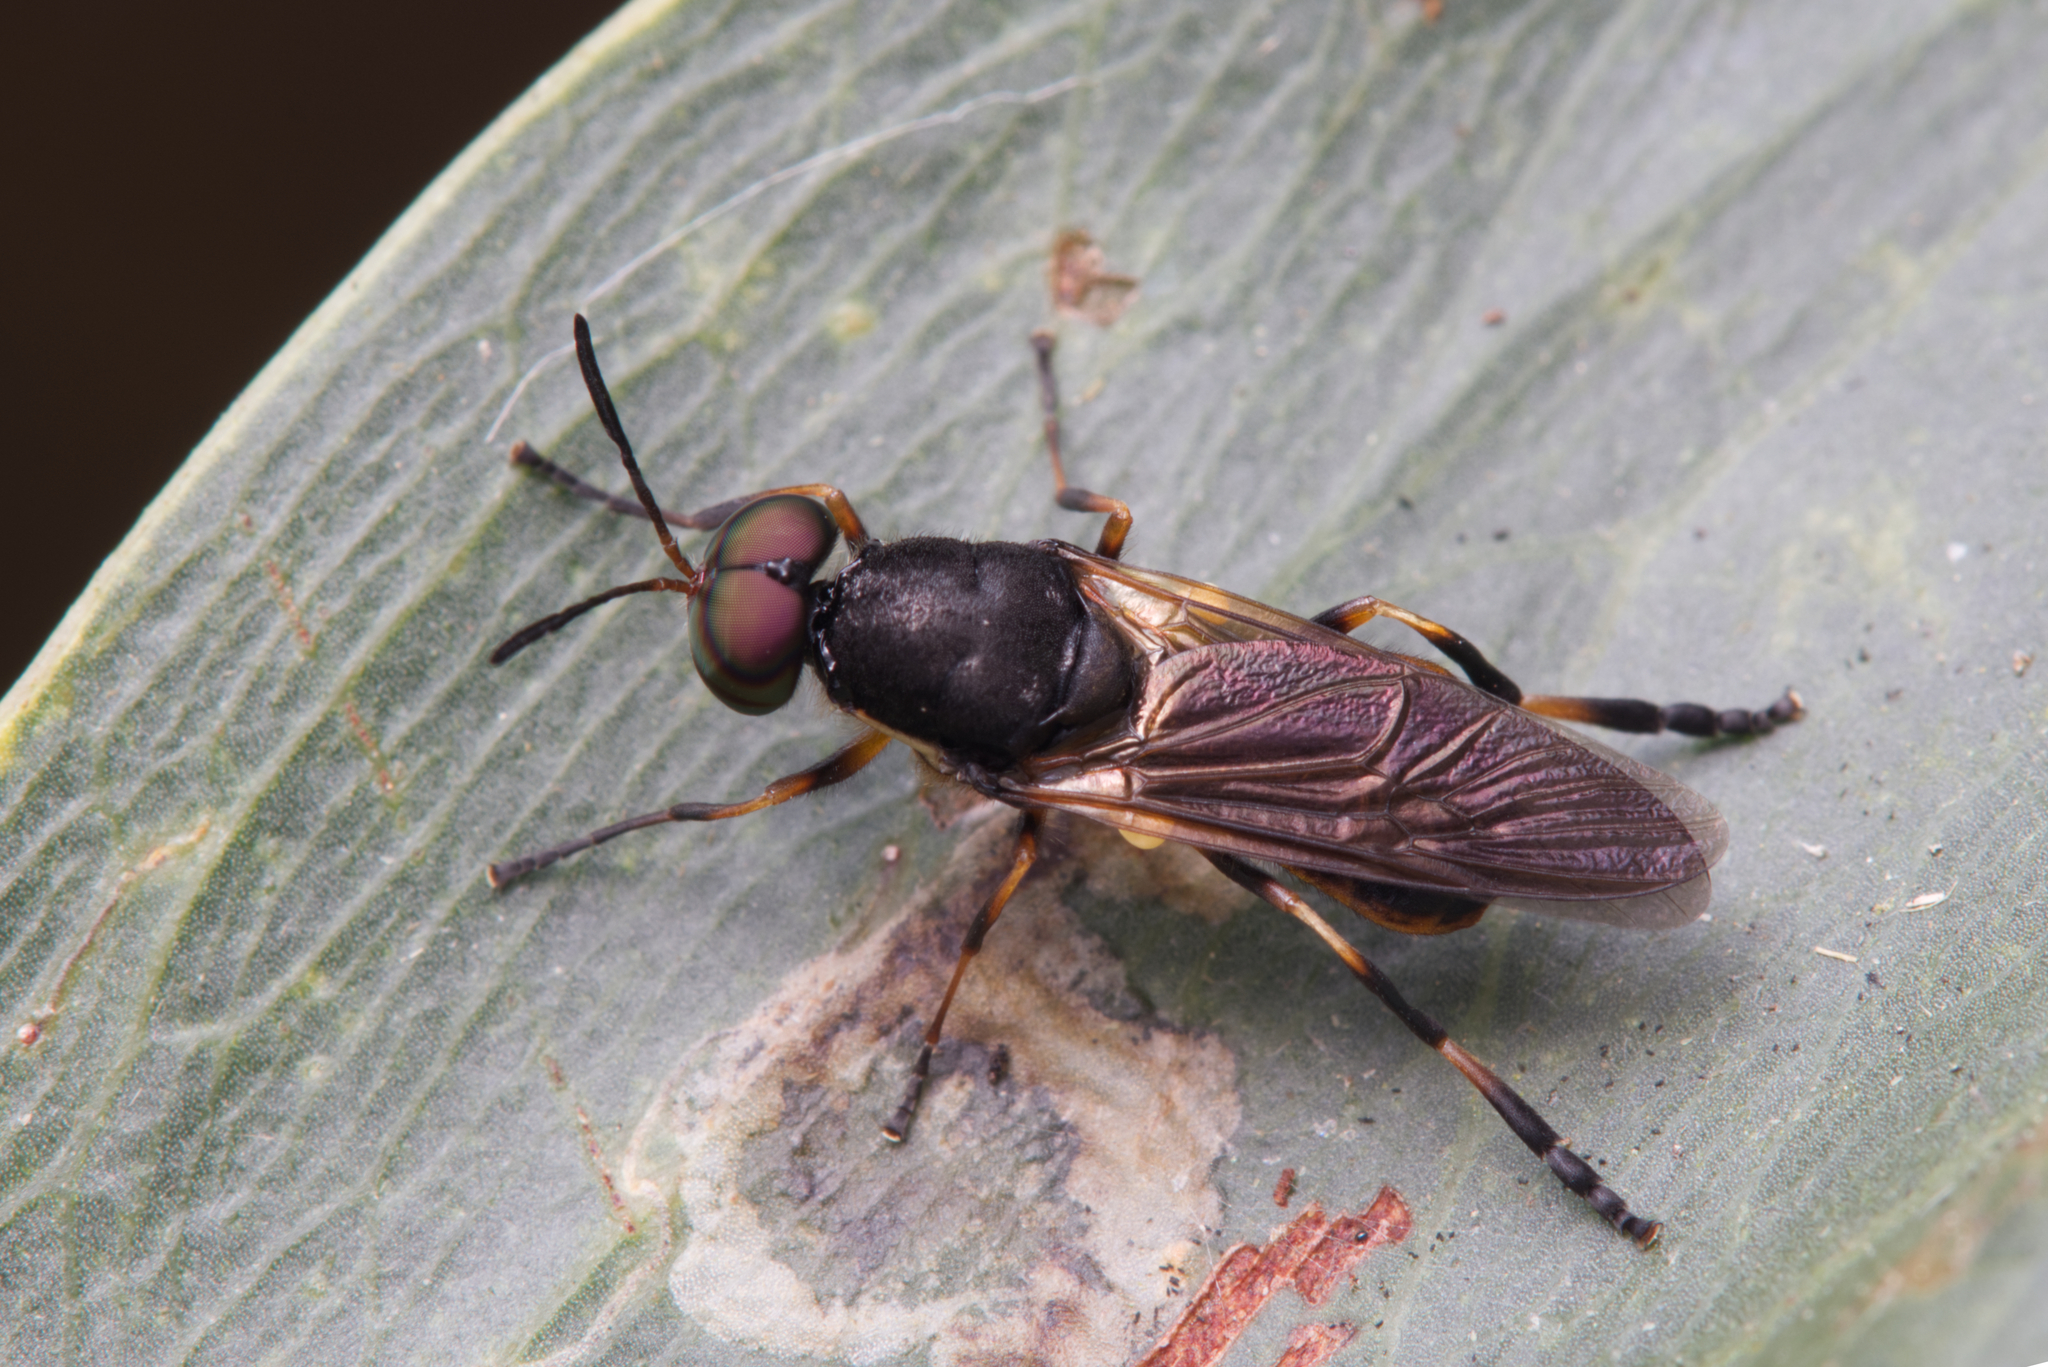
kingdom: Animalia
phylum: Arthropoda
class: Insecta
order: Diptera
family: Stratiomyidae
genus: Lagenosoma
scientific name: Lagenosoma dispar
